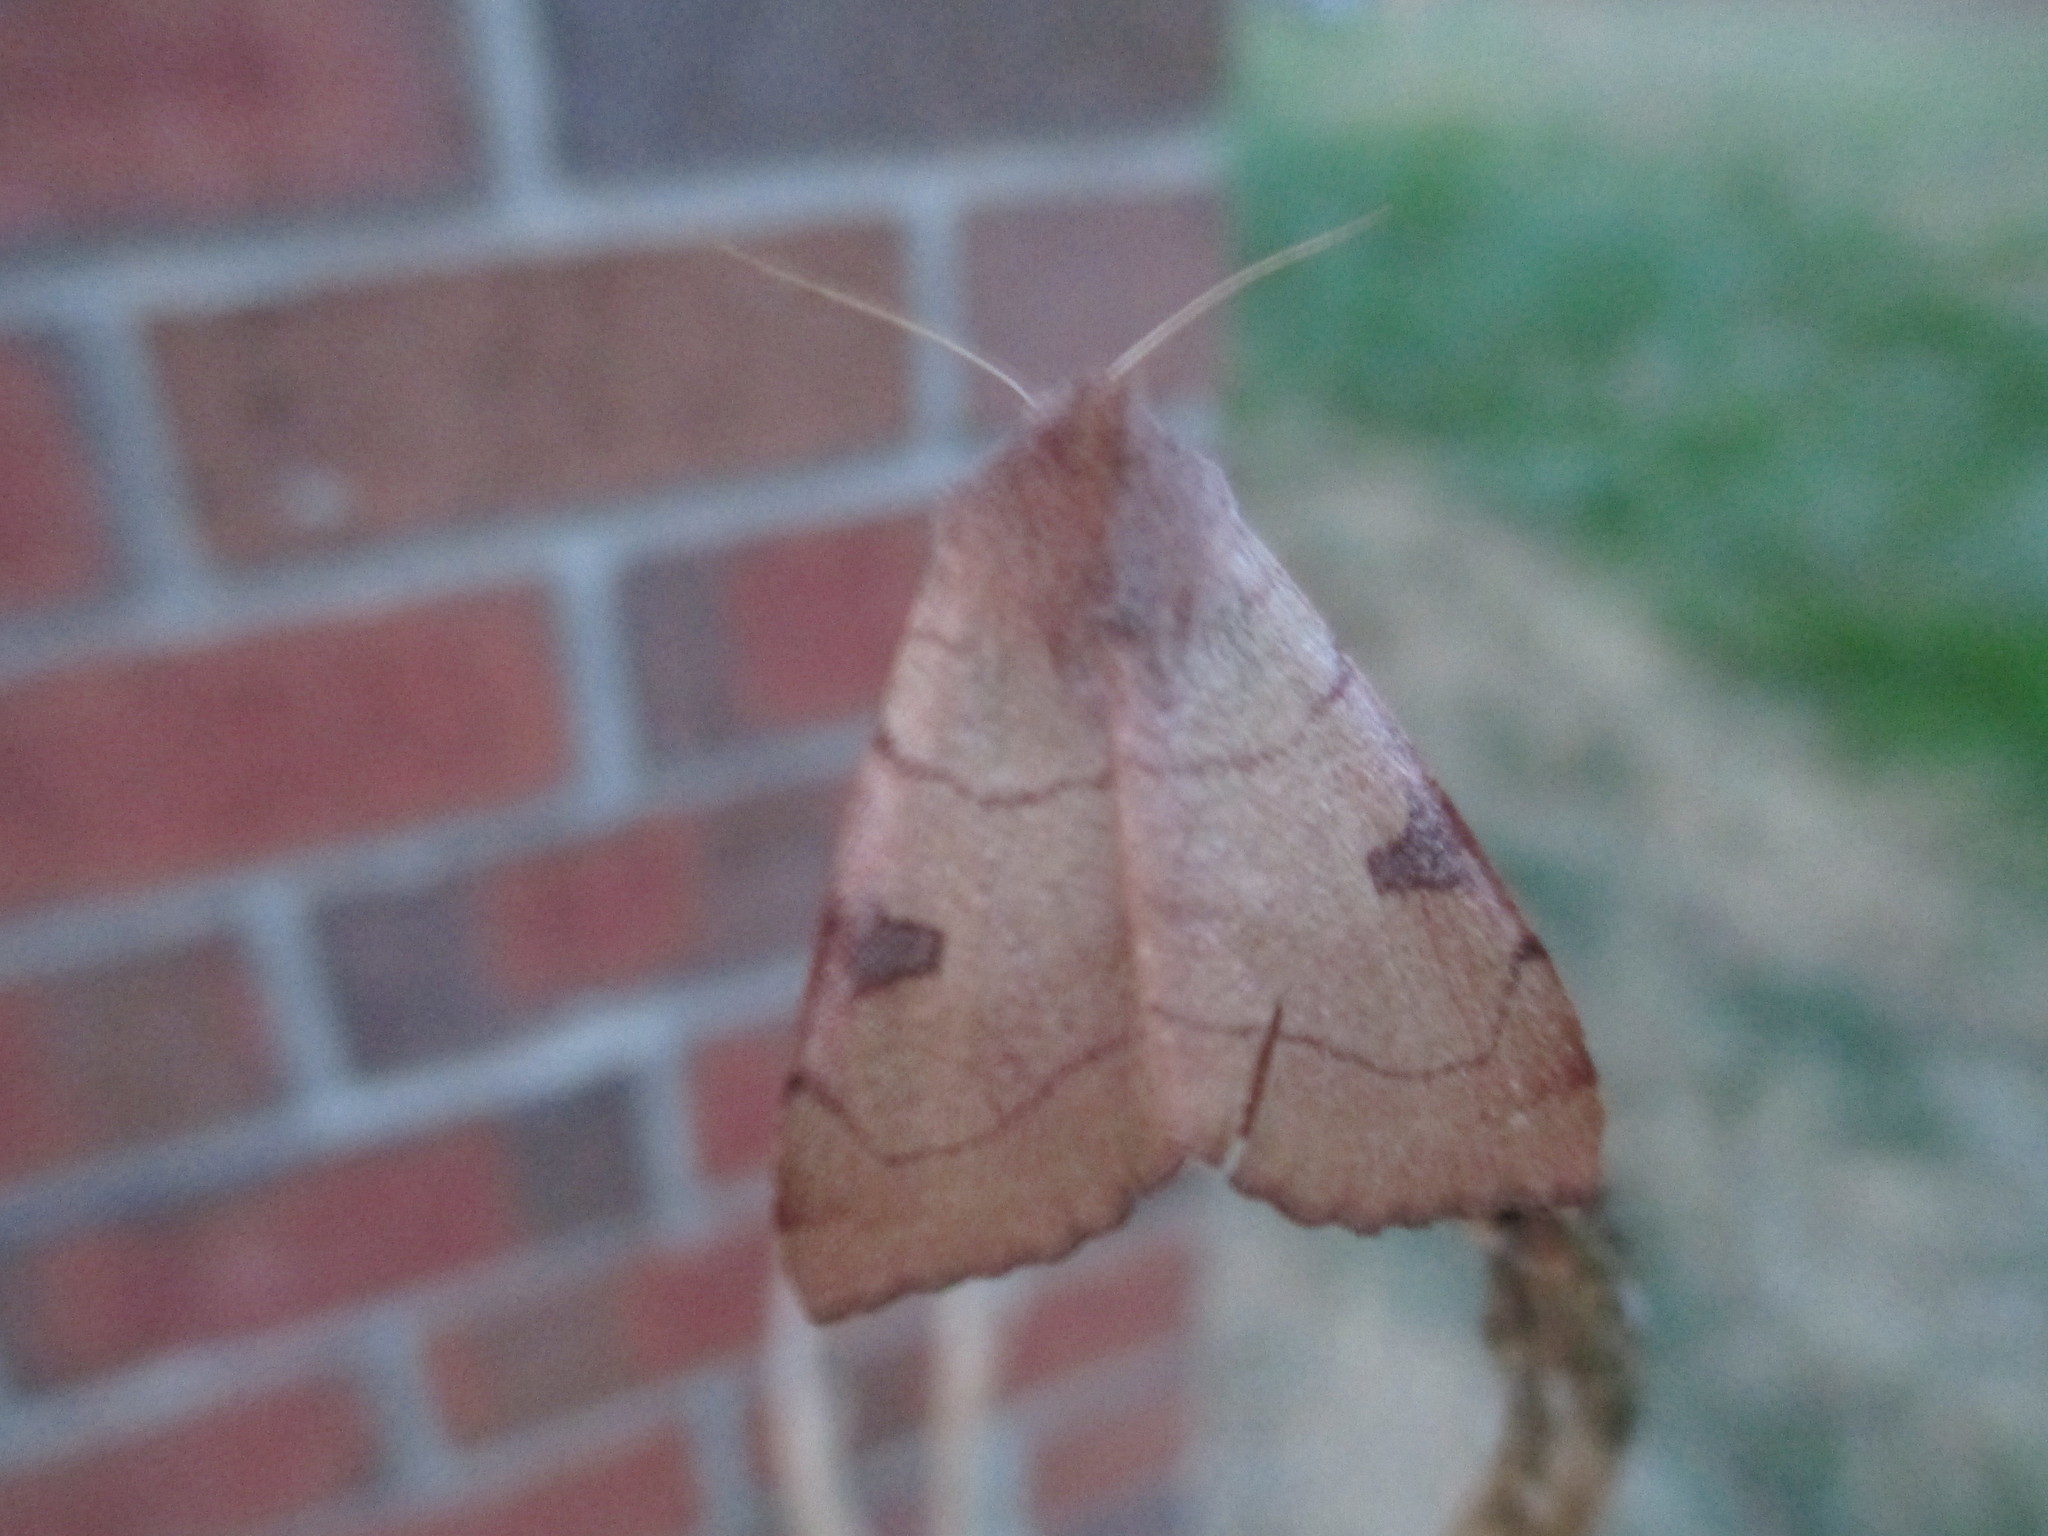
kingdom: Animalia
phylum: Arthropoda
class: Insecta
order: Lepidoptera
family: Noctuidae
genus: Choephora
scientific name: Choephora fungorum
